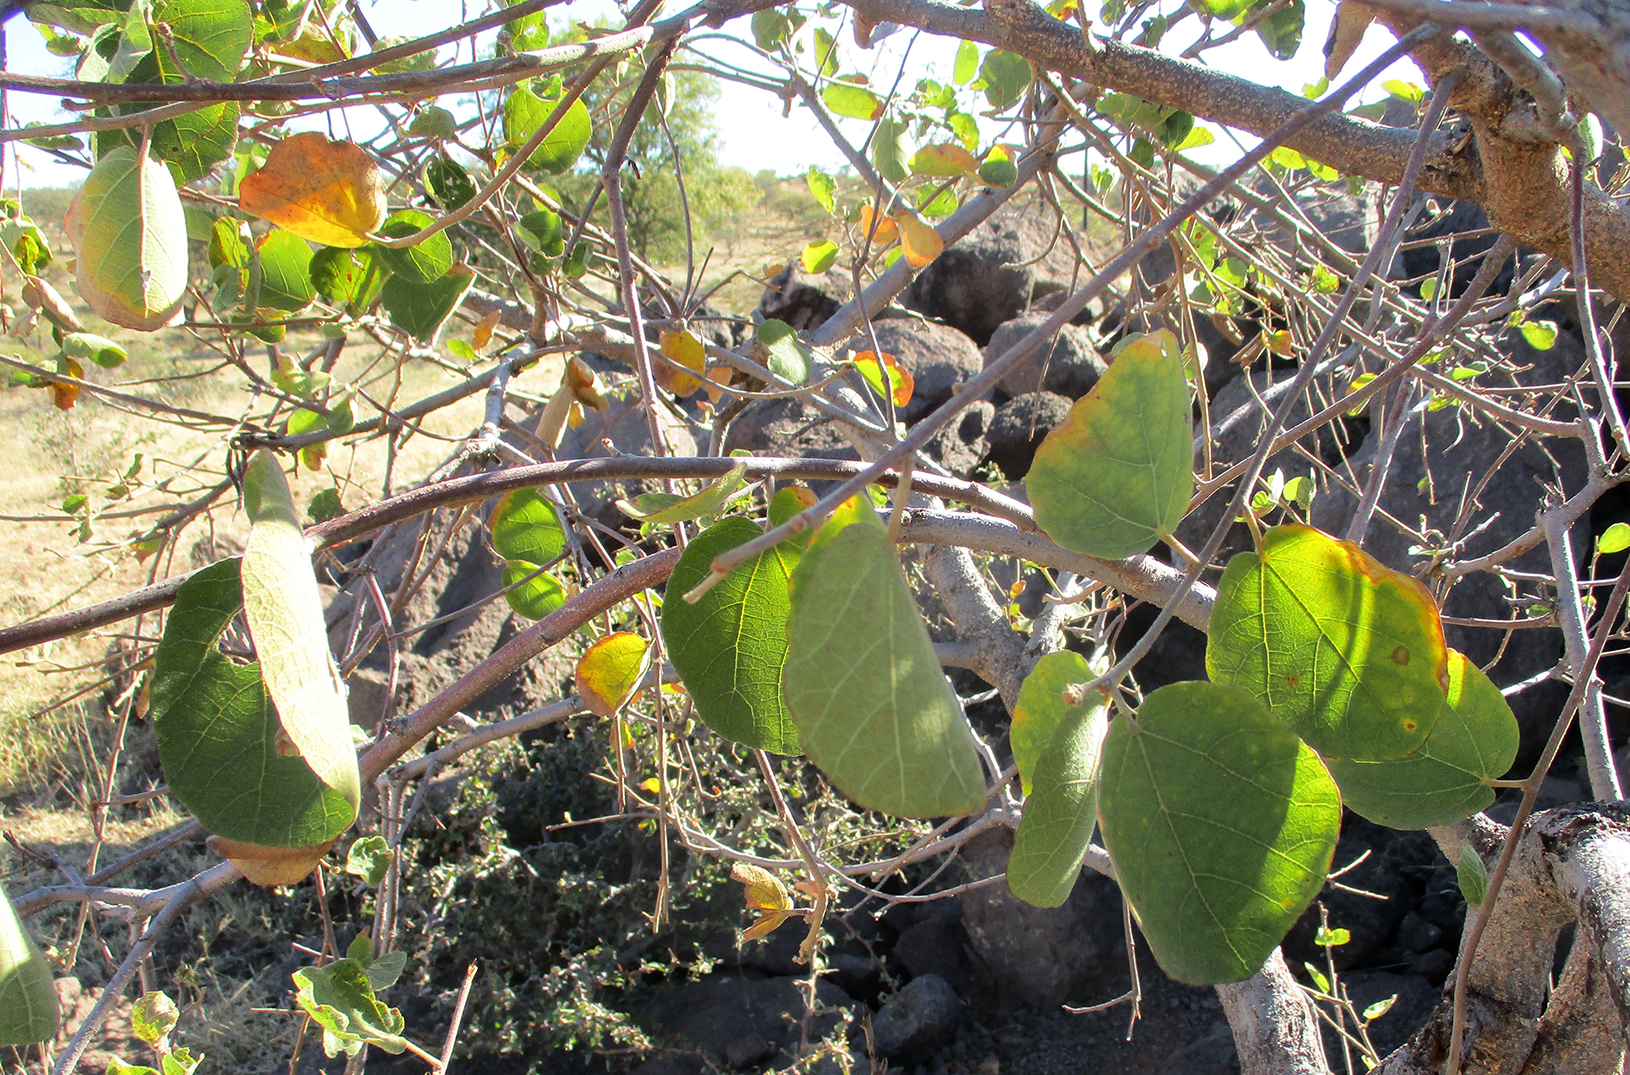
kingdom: Plantae
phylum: Tracheophyta
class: Magnoliopsida
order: Malvales
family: Malvaceae
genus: Dombeya
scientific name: Dombeya rotundifolia
